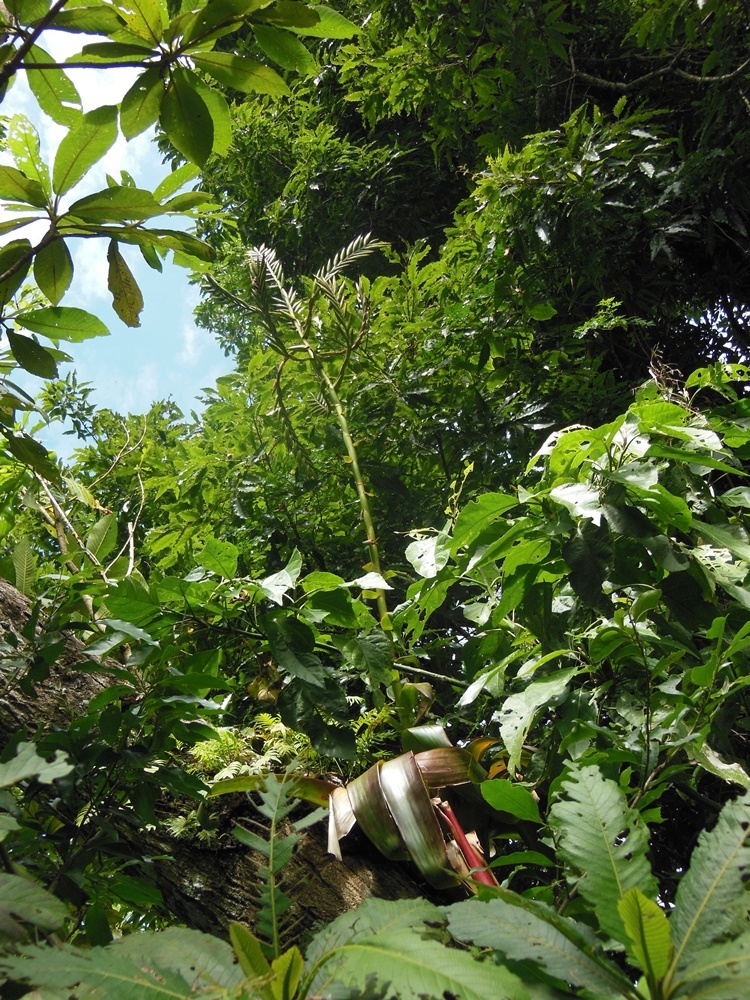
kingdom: Plantae
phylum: Tracheophyta
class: Liliopsida
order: Poales
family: Bromeliaceae
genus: Pseudalcantarea
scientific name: Pseudalcantarea macropetala
